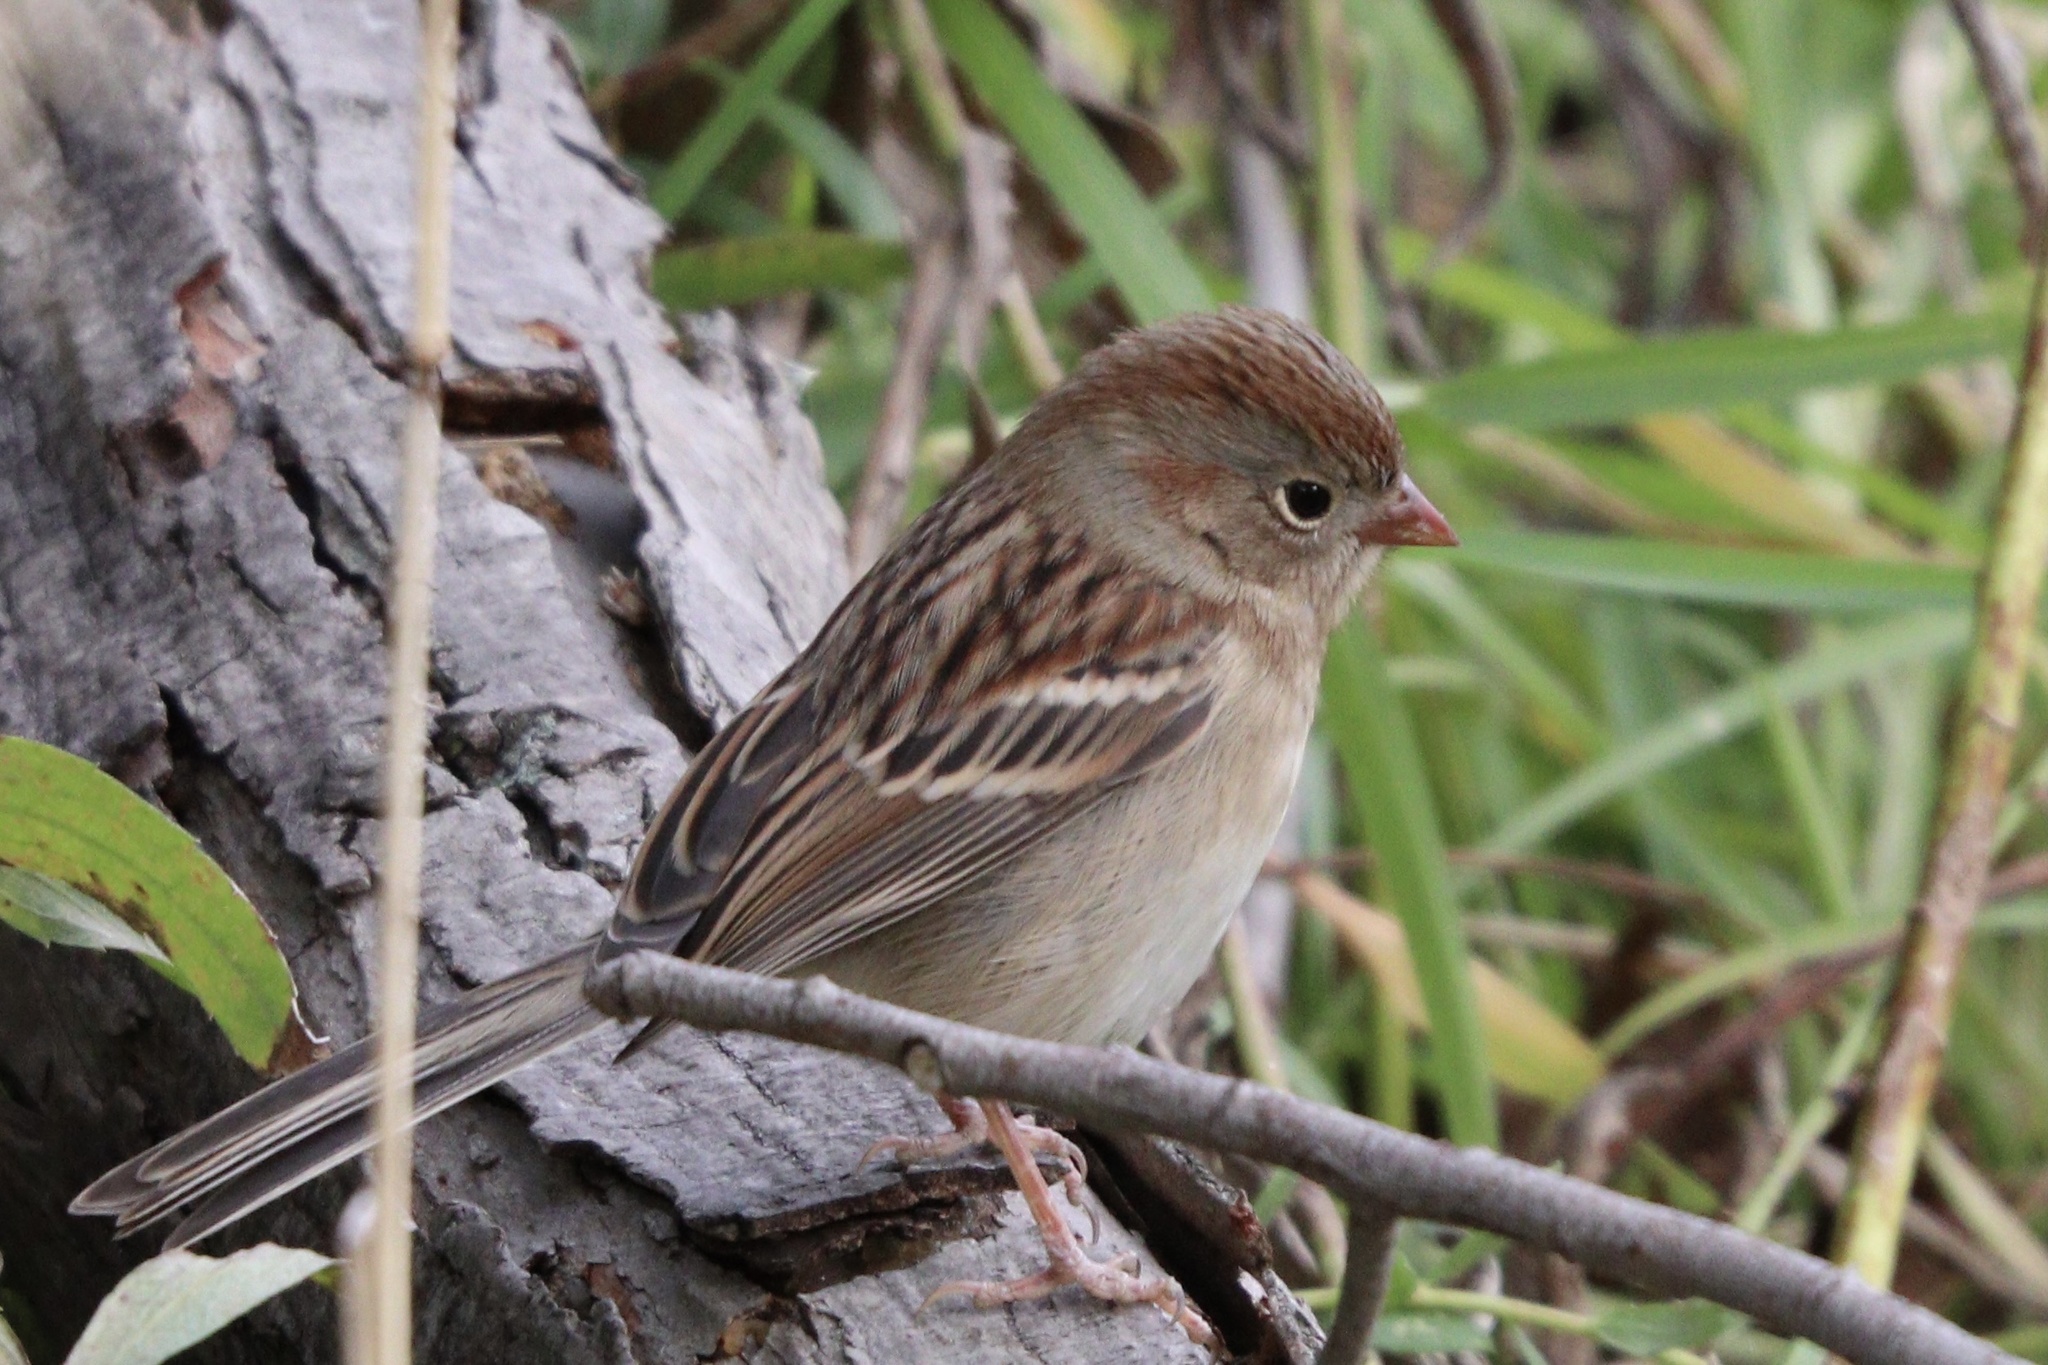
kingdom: Animalia
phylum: Chordata
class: Aves
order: Passeriformes
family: Passerellidae
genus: Spizella
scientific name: Spizella pusilla
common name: Field sparrow
